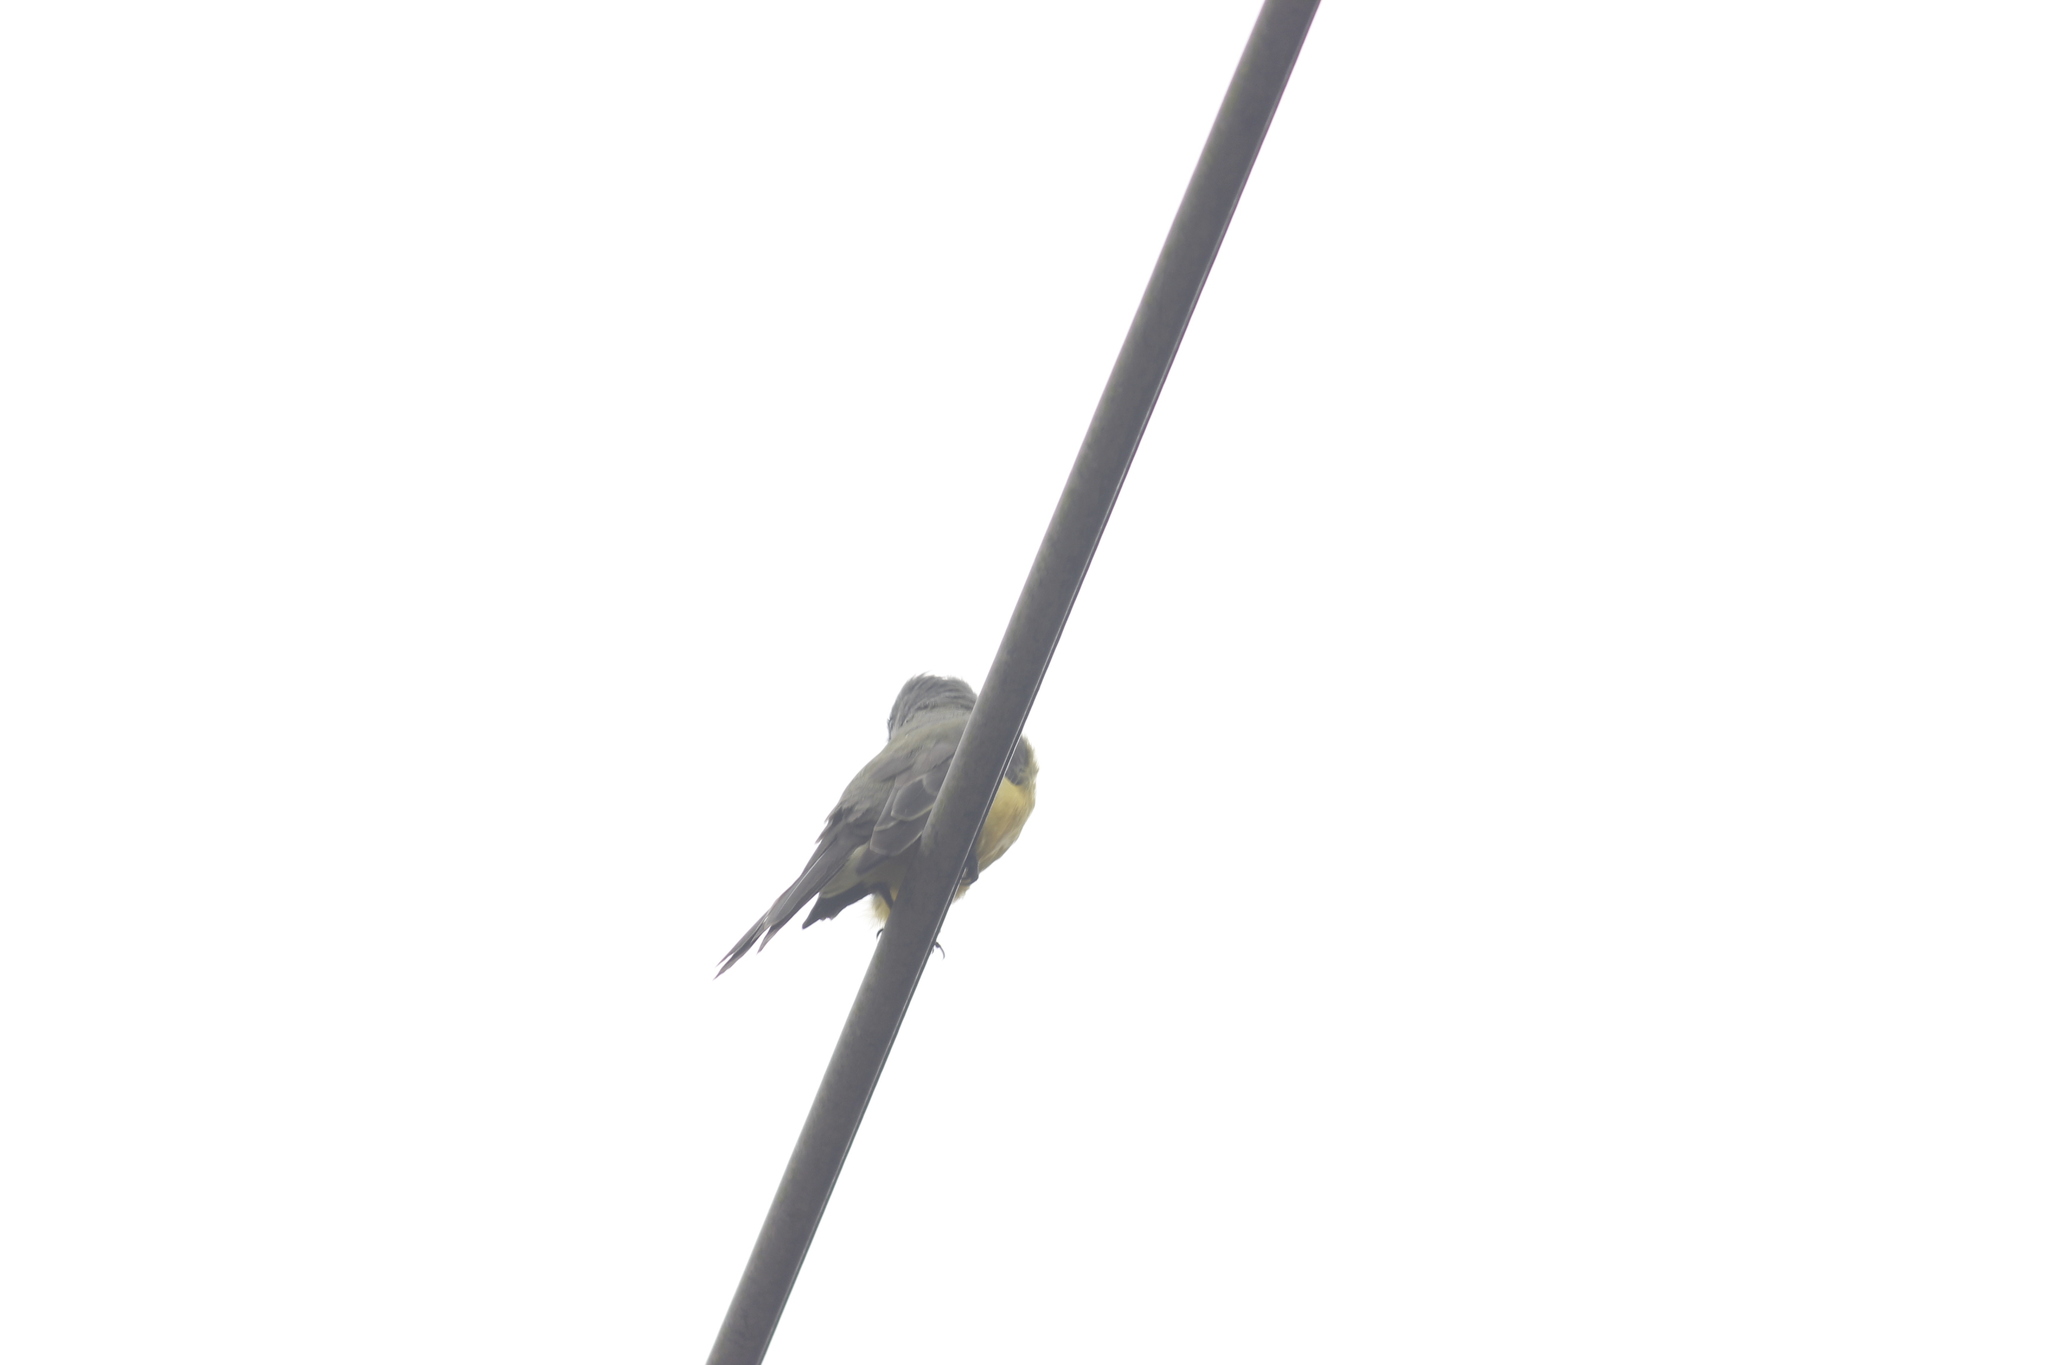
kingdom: Animalia
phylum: Chordata
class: Aves
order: Passeriformes
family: Tyrannidae
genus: Tyrannus
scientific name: Tyrannus melancholicus
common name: Tropical kingbird
